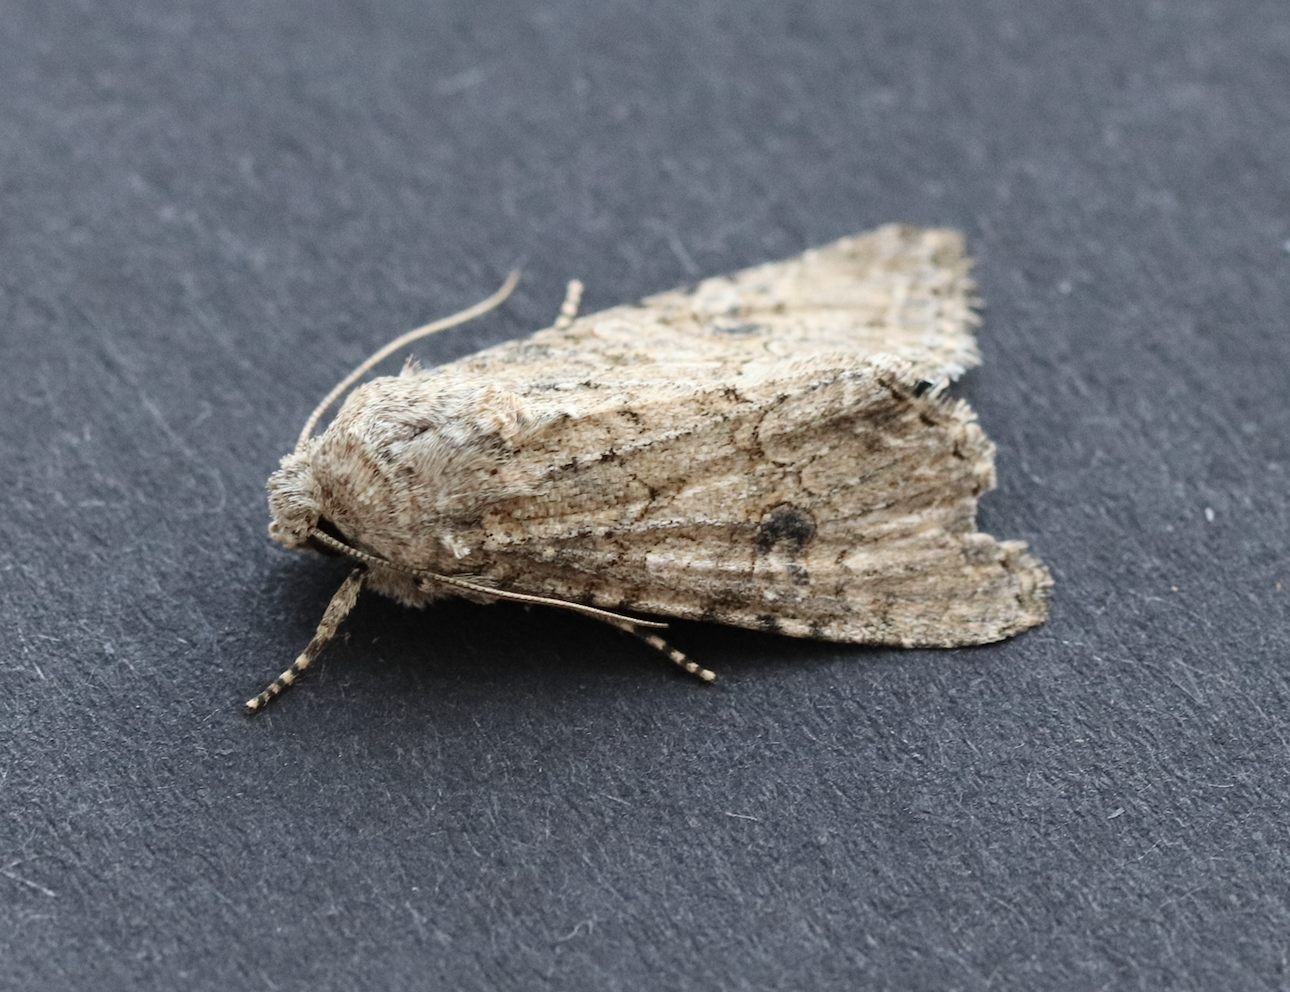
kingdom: Animalia
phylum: Arthropoda
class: Insecta
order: Lepidoptera
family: Noctuidae
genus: Anarta
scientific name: Anarta trifolii
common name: Clover cutworm moth
